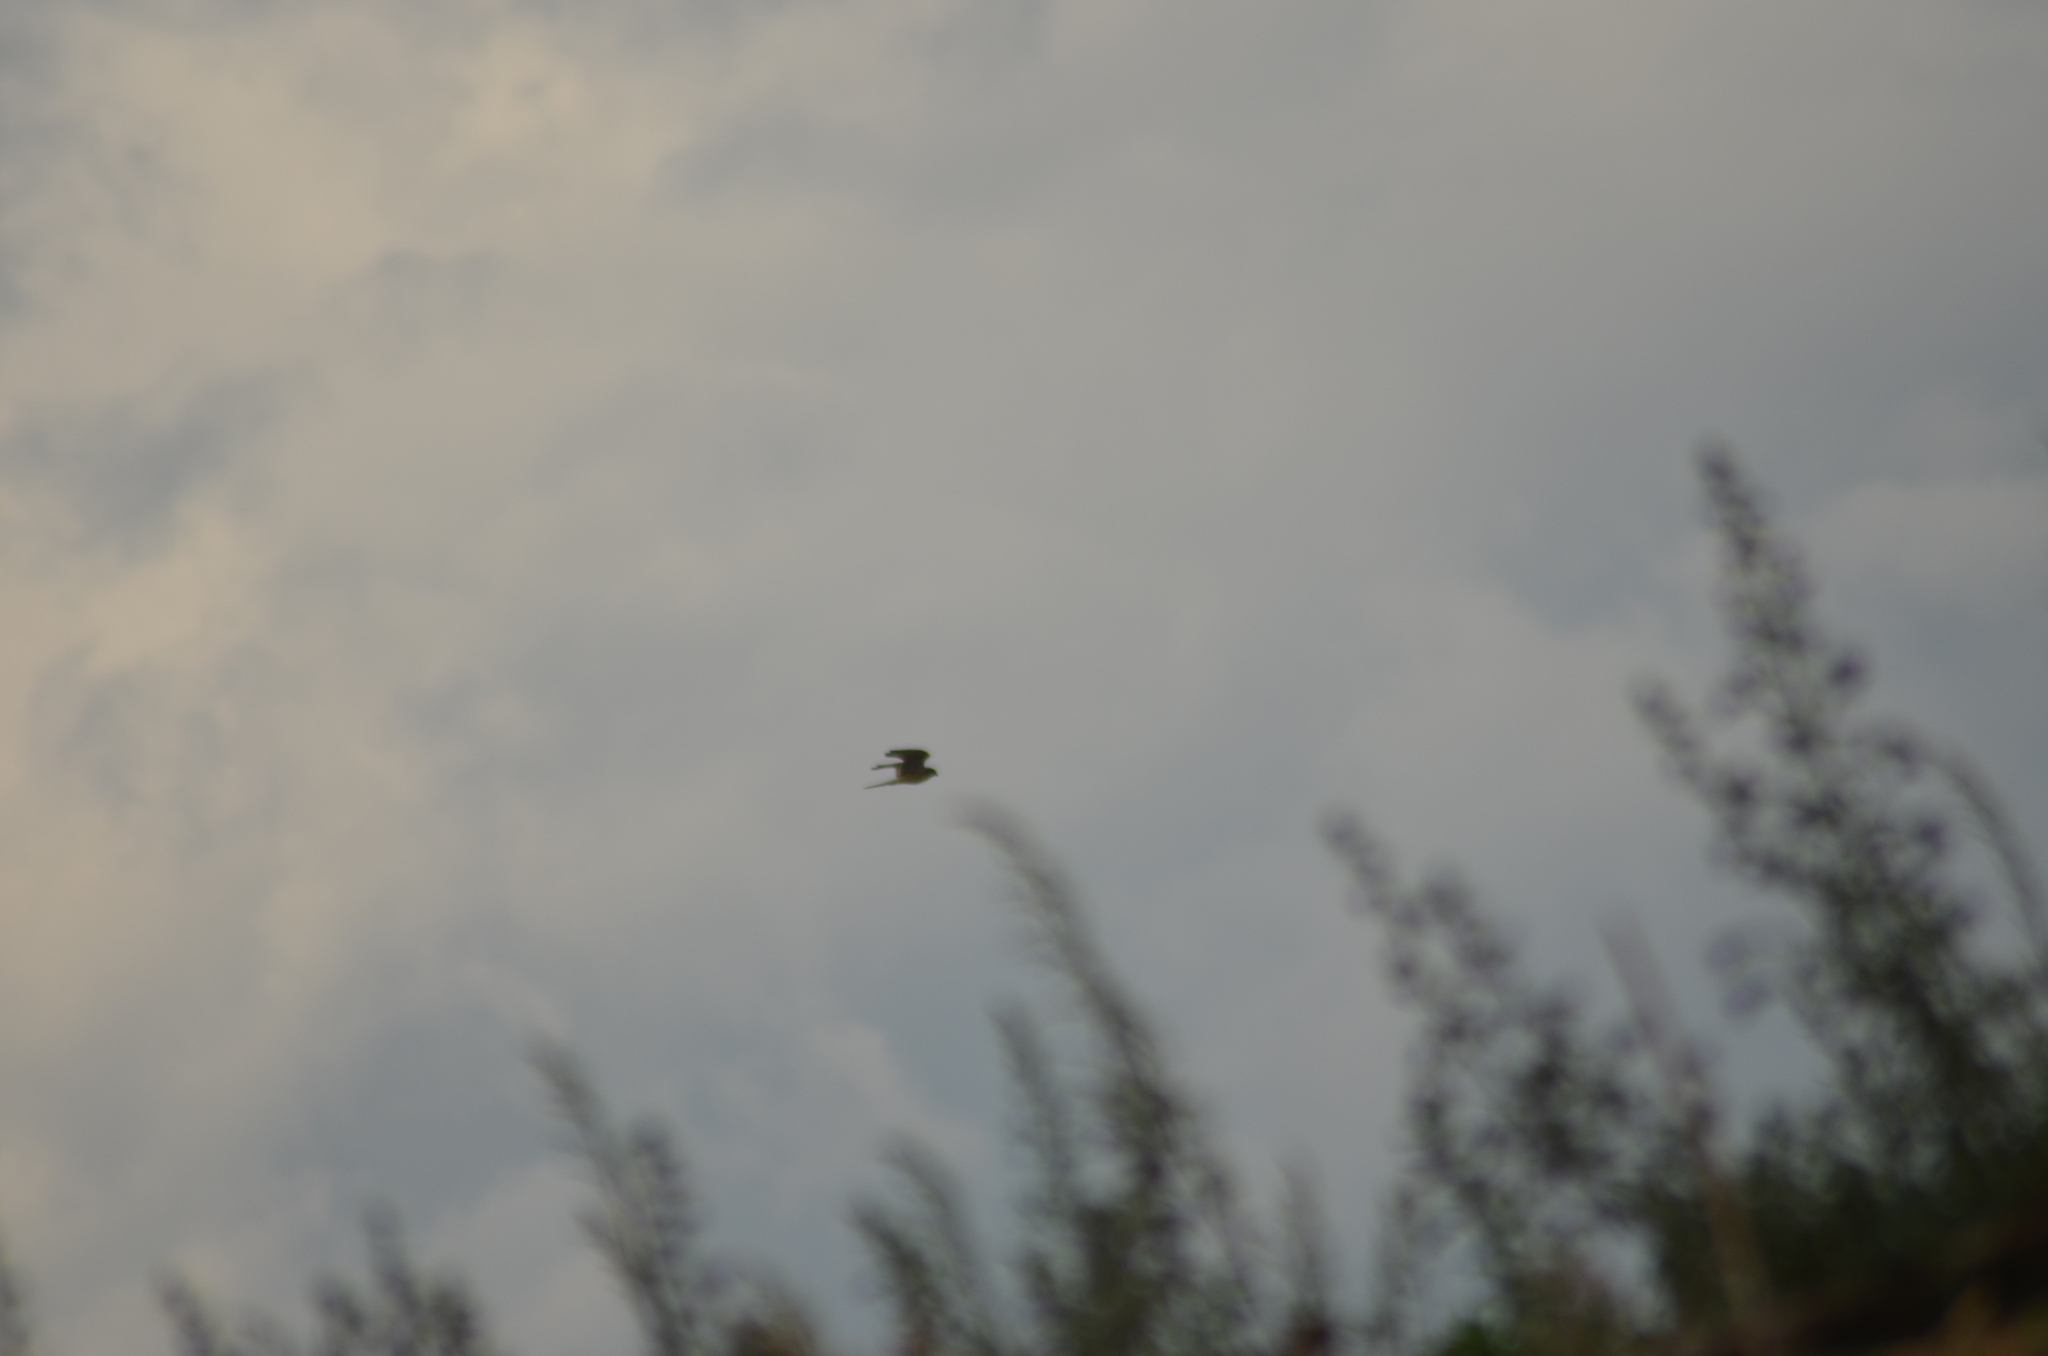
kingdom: Animalia
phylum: Chordata
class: Aves
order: Falconiformes
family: Falconidae
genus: Falco
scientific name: Falco tinnunculus
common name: Common kestrel
